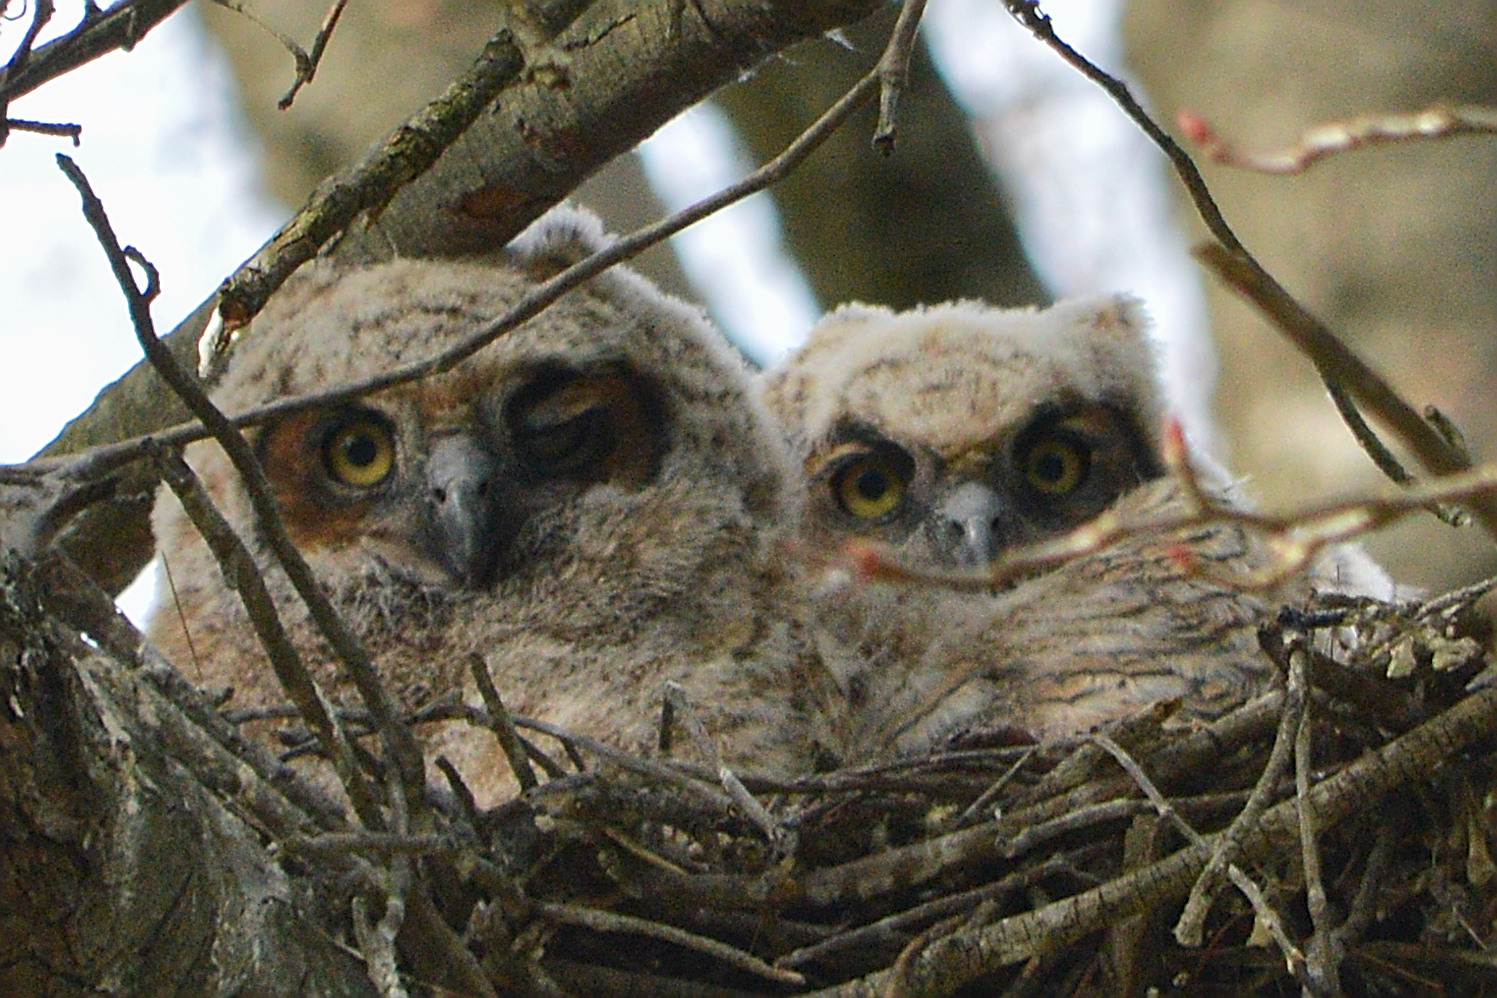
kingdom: Animalia
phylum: Chordata
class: Aves
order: Strigiformes
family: Strigidae
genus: Bubo
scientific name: Bubo virginianus
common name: Great horned owl
